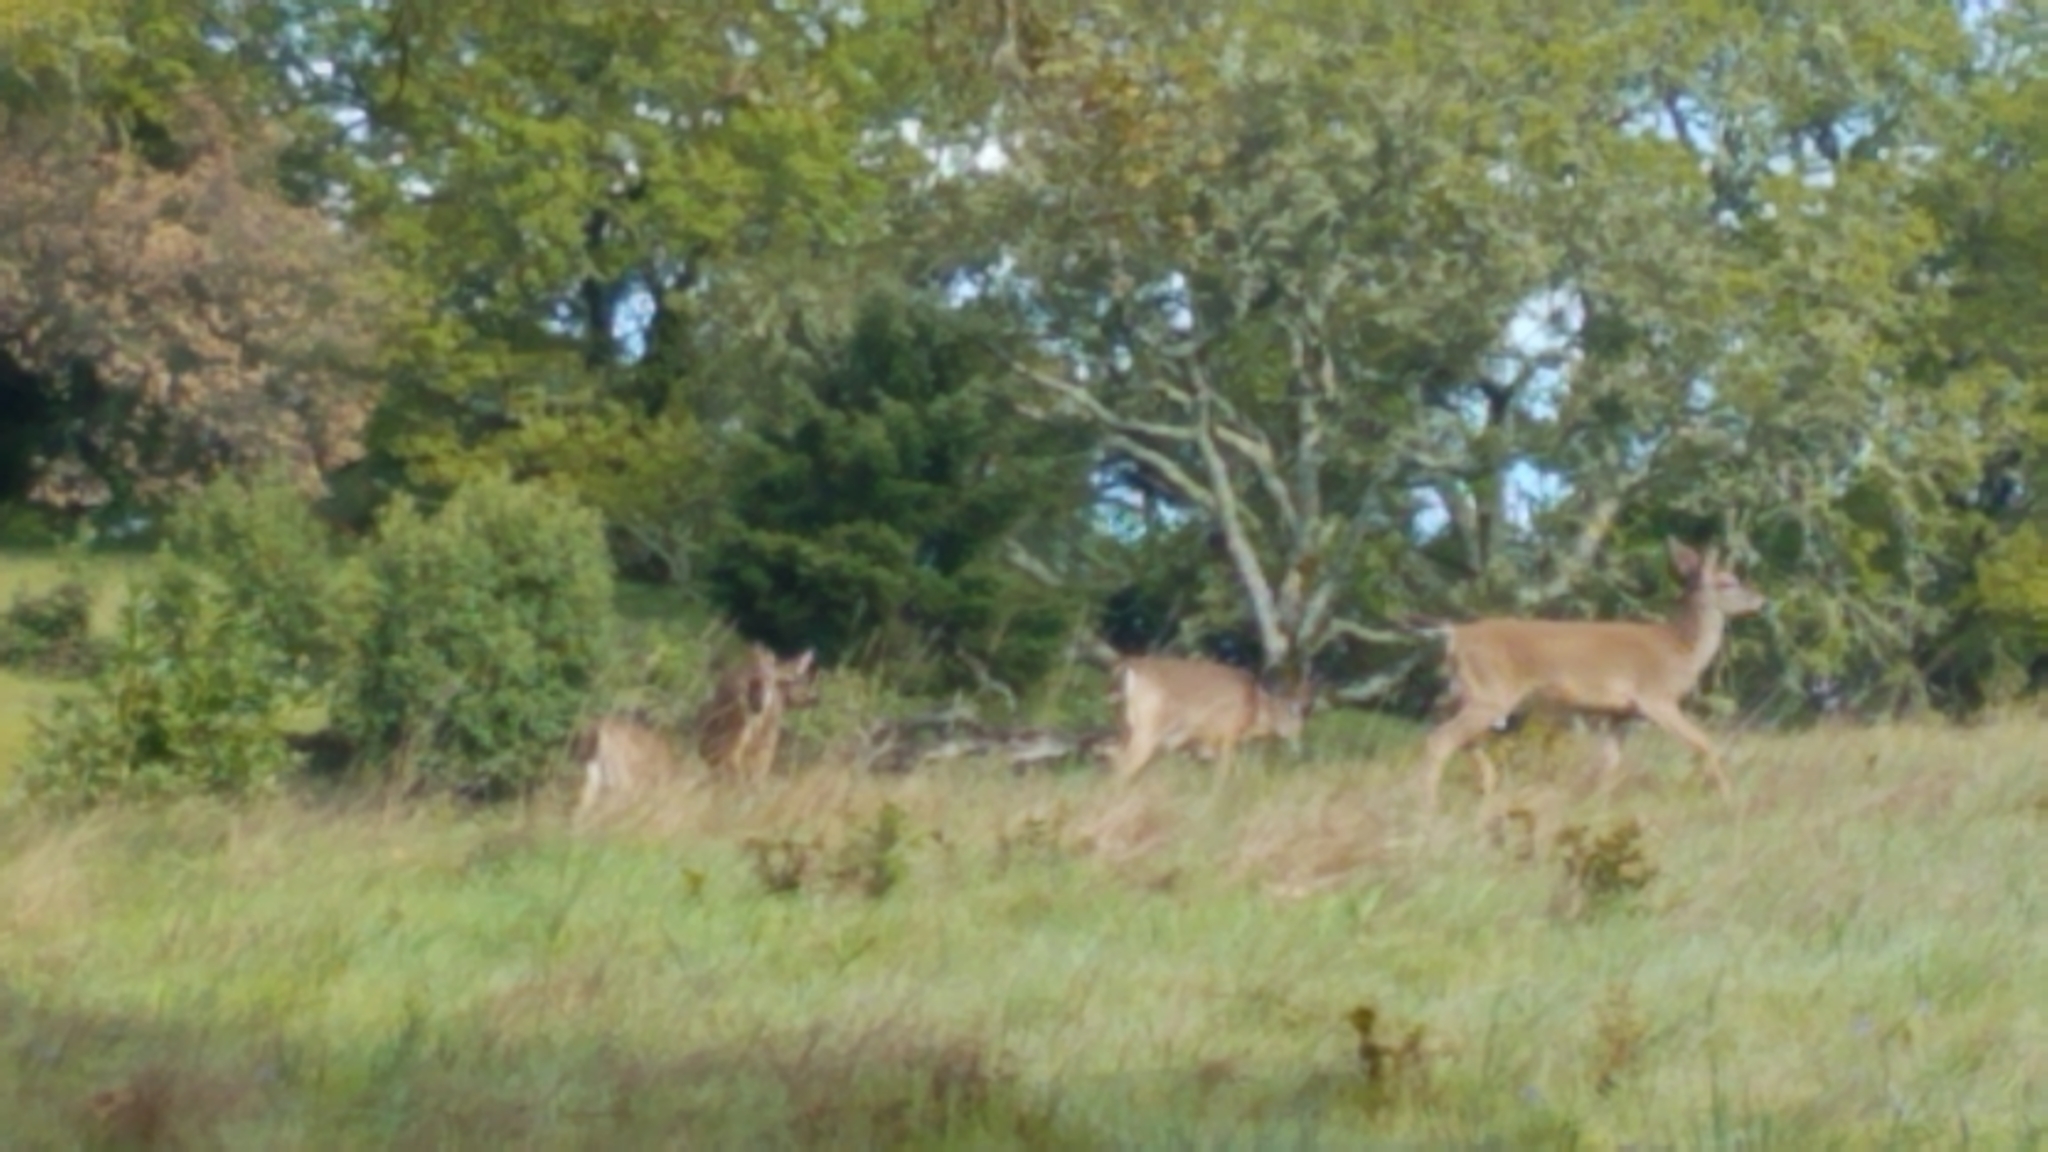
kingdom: Animalia
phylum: Chordata
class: Mammalia
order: Artiodactyla
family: Cervidae
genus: Odocoileus
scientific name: Odocoileus hemionus
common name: Mule deer
